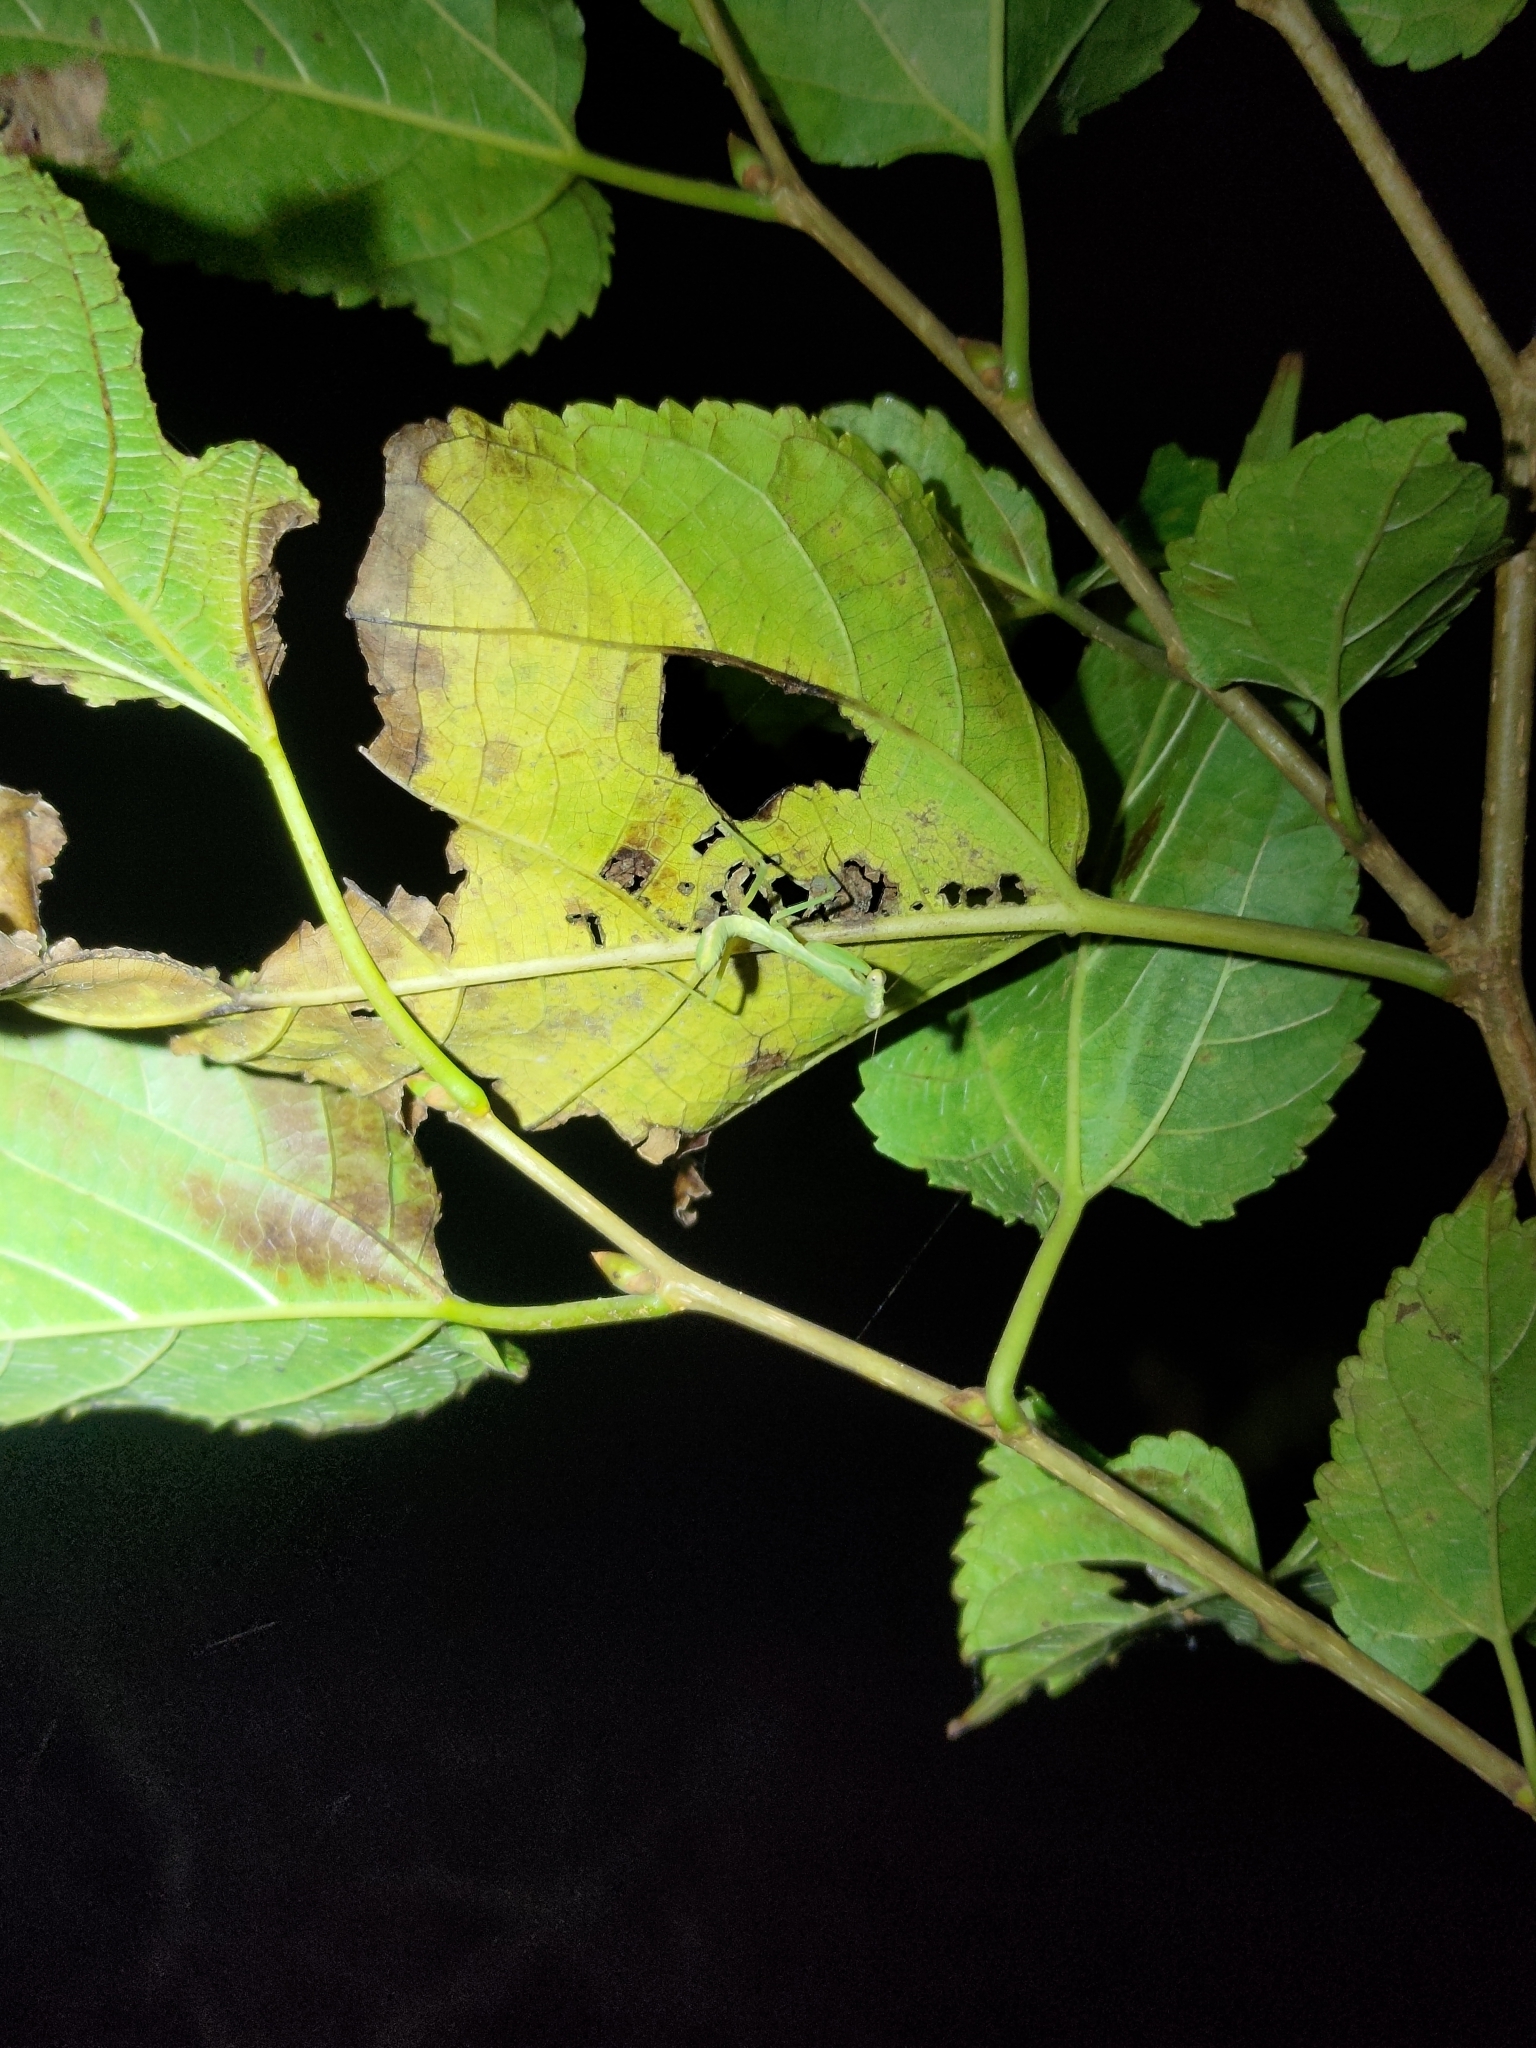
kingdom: Animalia
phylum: Arthropoda
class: Insecta
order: Mantodea
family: Mantidae
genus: Titanodula
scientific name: Titanodula formosana
